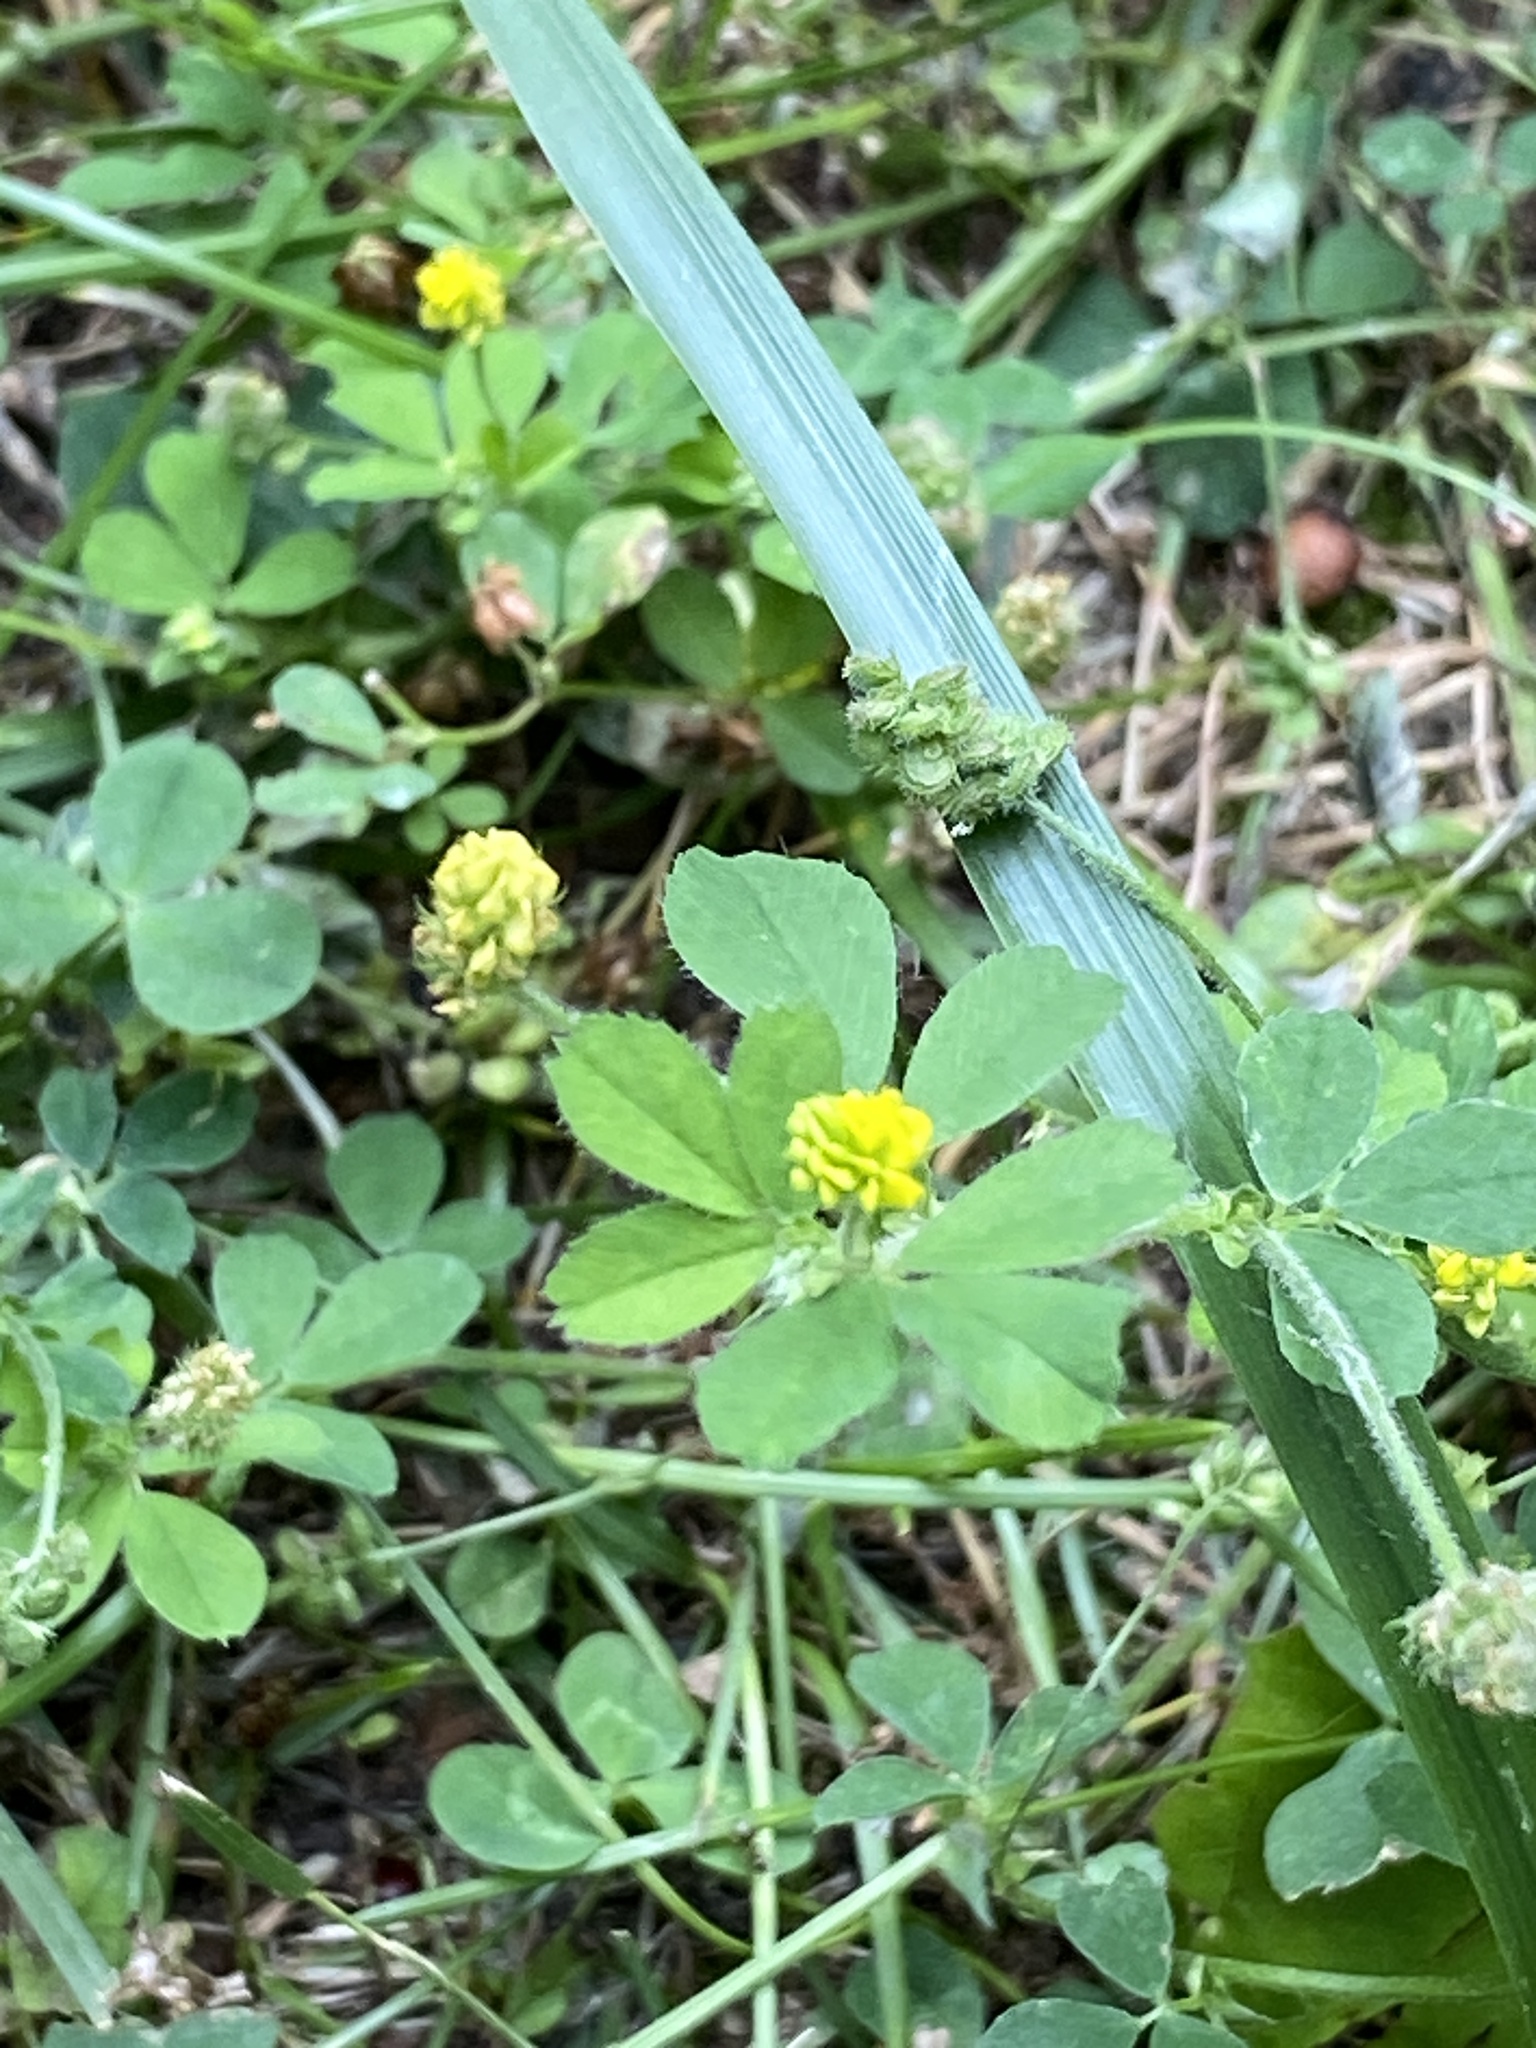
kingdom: Plantae
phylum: Tracheophyta
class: Magnoliopsida
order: Fabales
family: Fabaceae
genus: Medicago
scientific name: Medicago lupulina
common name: Black medick
